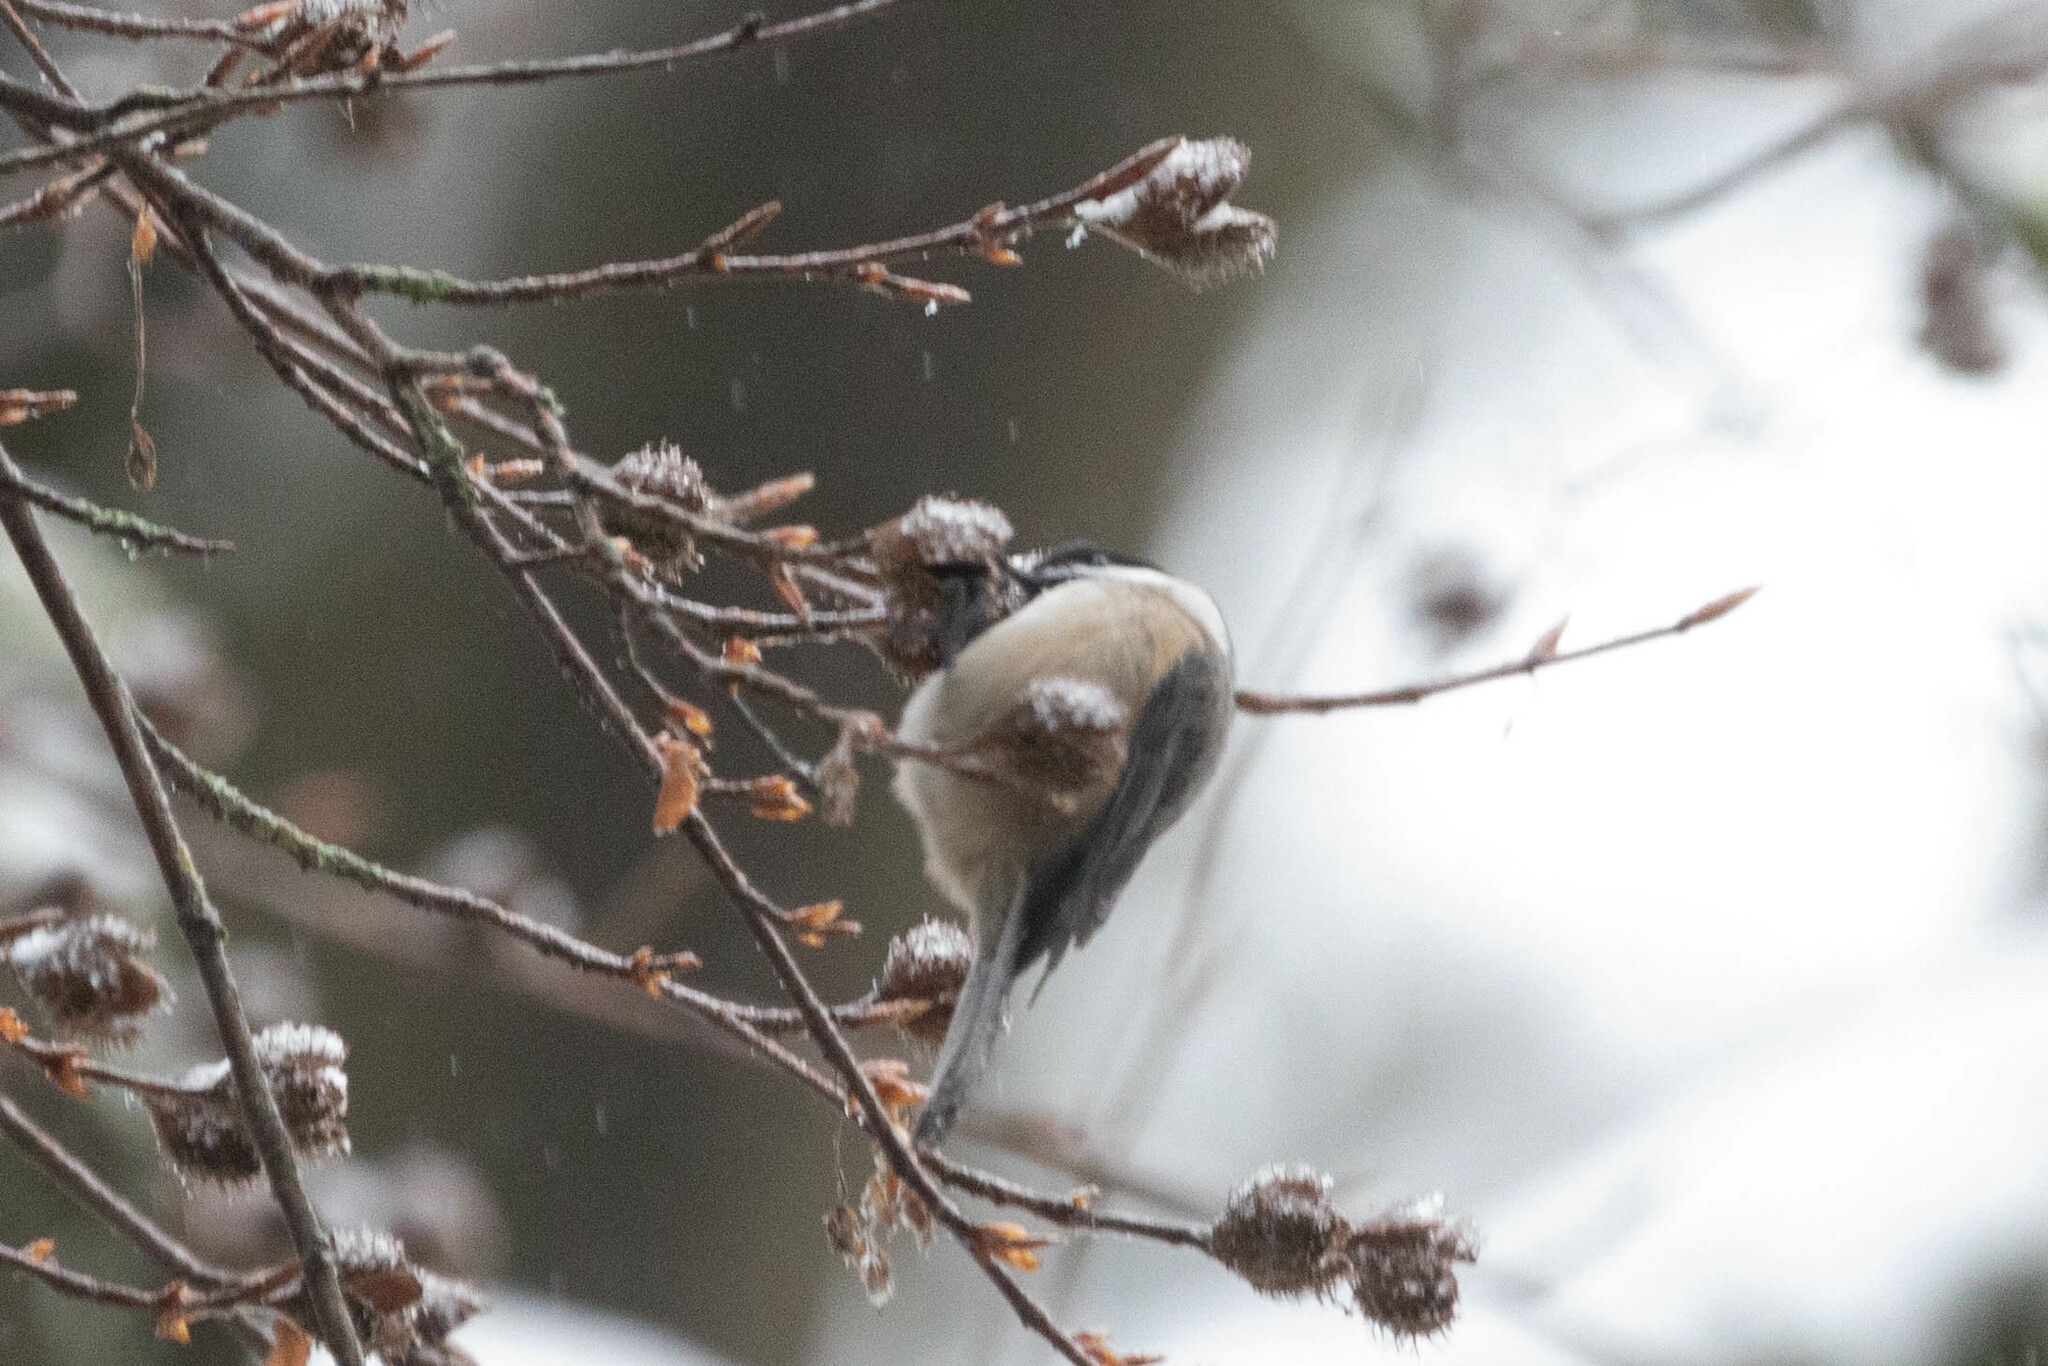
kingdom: Animalia
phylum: Chordata
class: Aves
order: Passeriformes
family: Paridae
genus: Poecile
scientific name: Poecile atricapillus
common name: Black-capped chickadee
